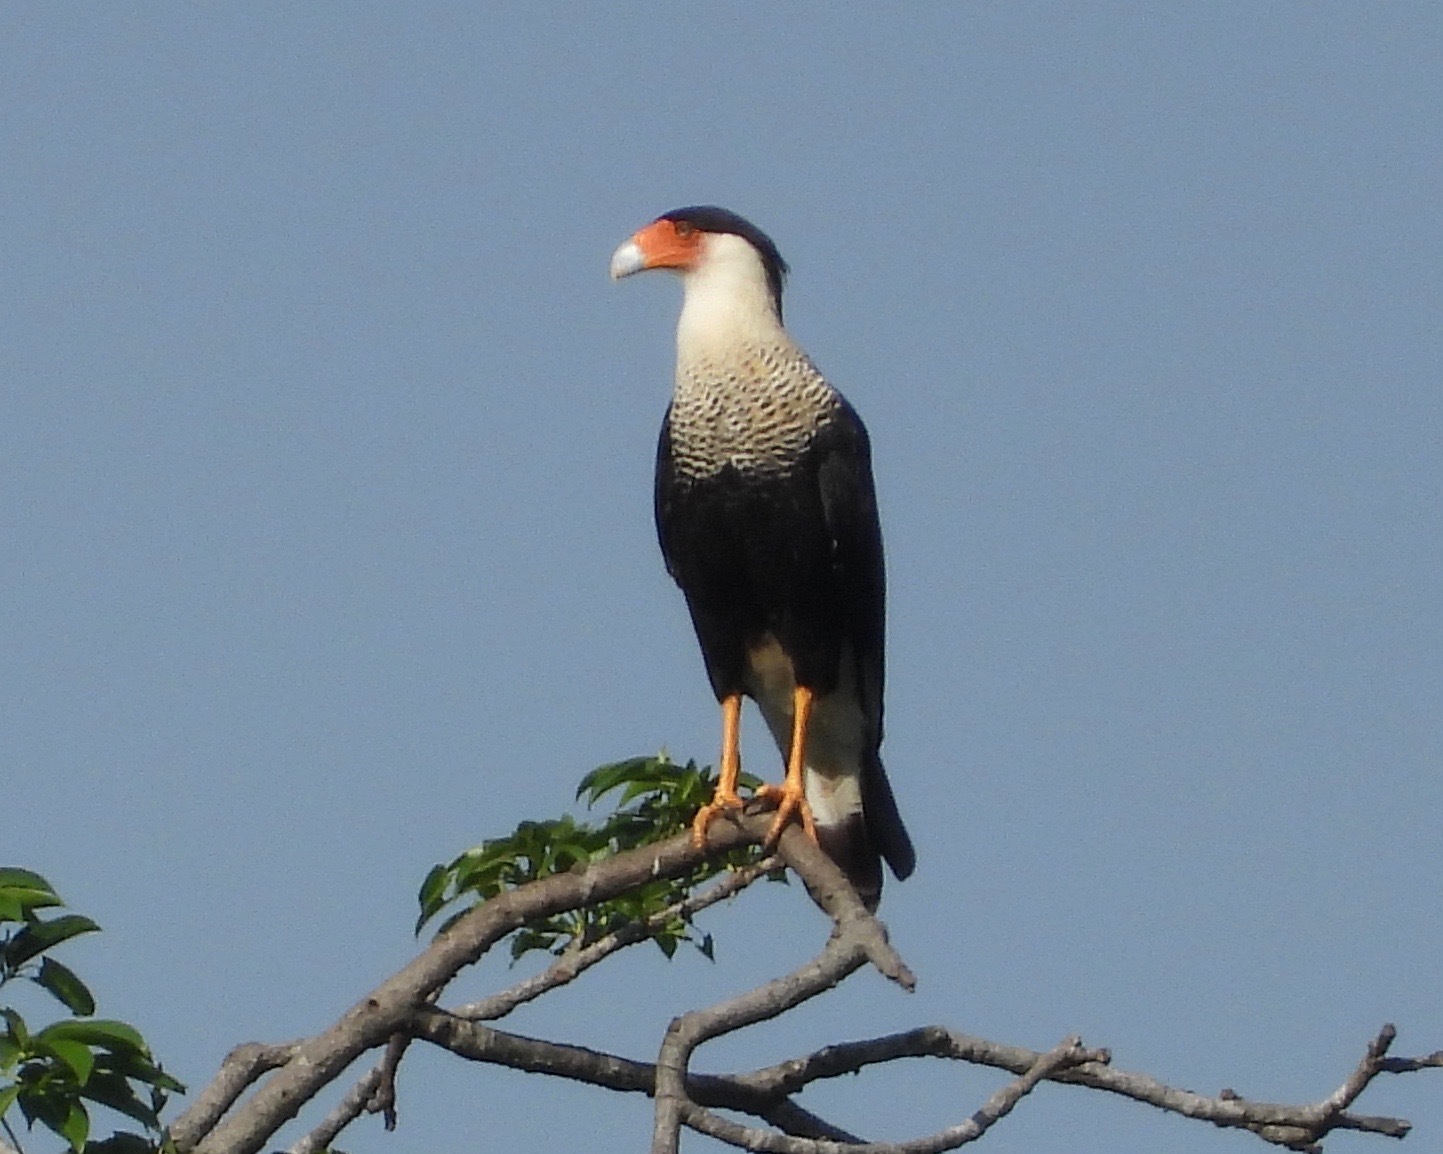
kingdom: Animalia
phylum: Chordata
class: Aves
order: Falconiformes
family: Falconidae
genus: Caracara
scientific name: Caracara plancus
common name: Southern caracara
